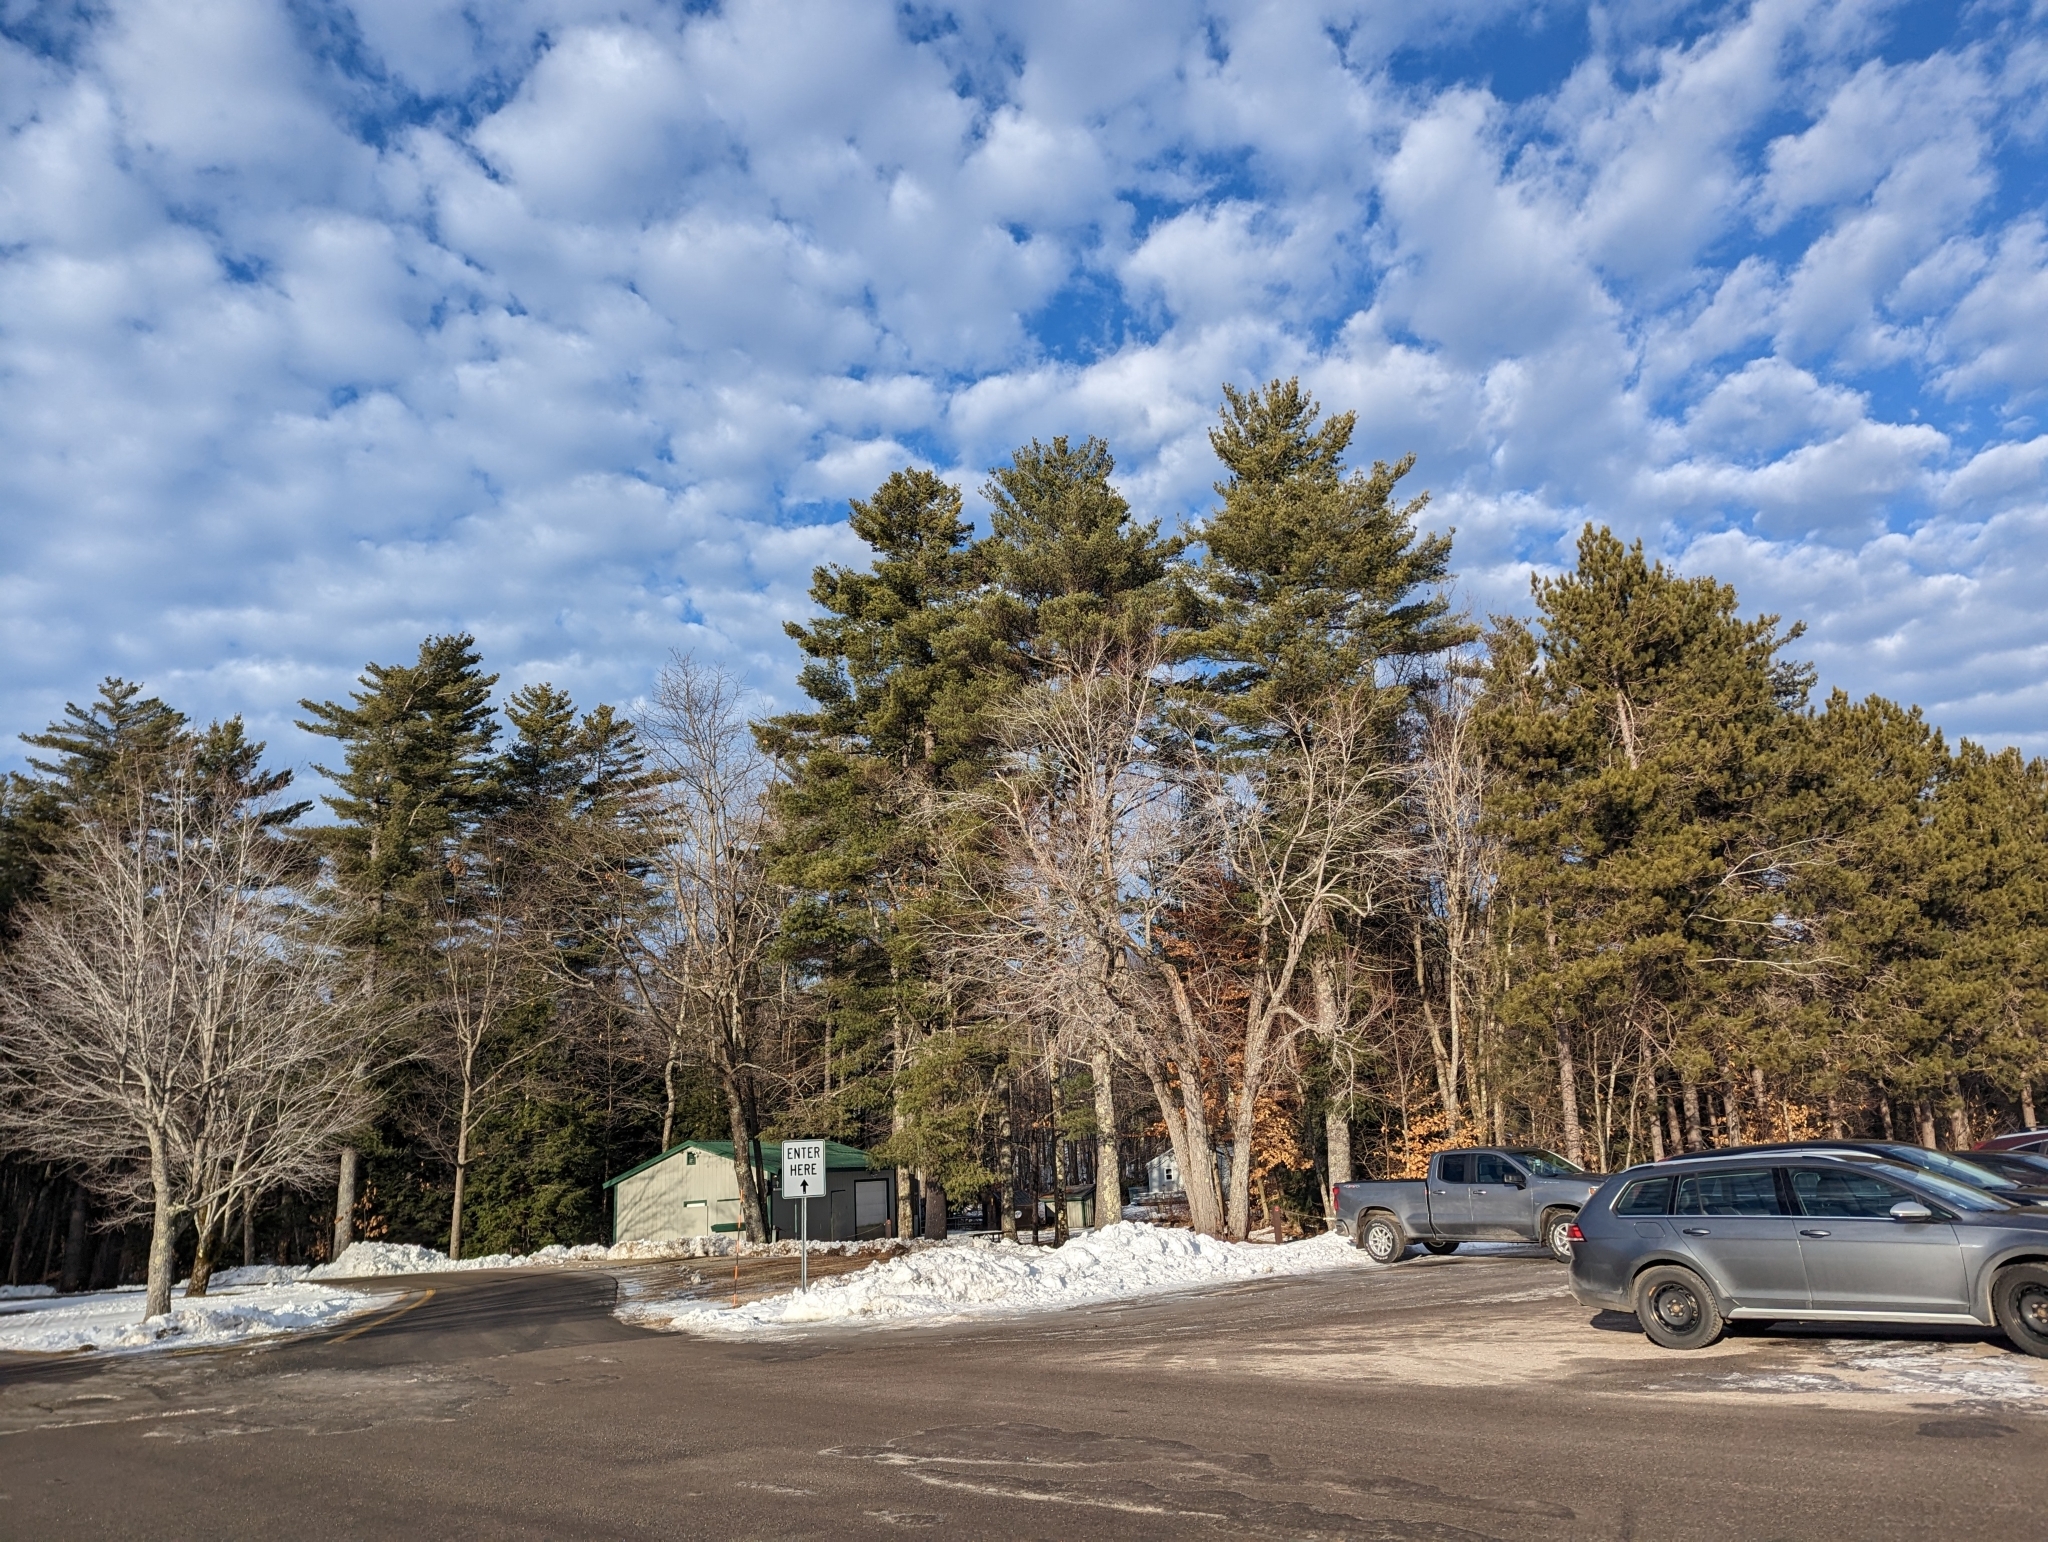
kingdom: Plantae
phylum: Tracheophyta
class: Pinopsida
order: Pinales
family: Pinaceae
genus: Pinus
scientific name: Pinus strobus
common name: Weymouth pine
